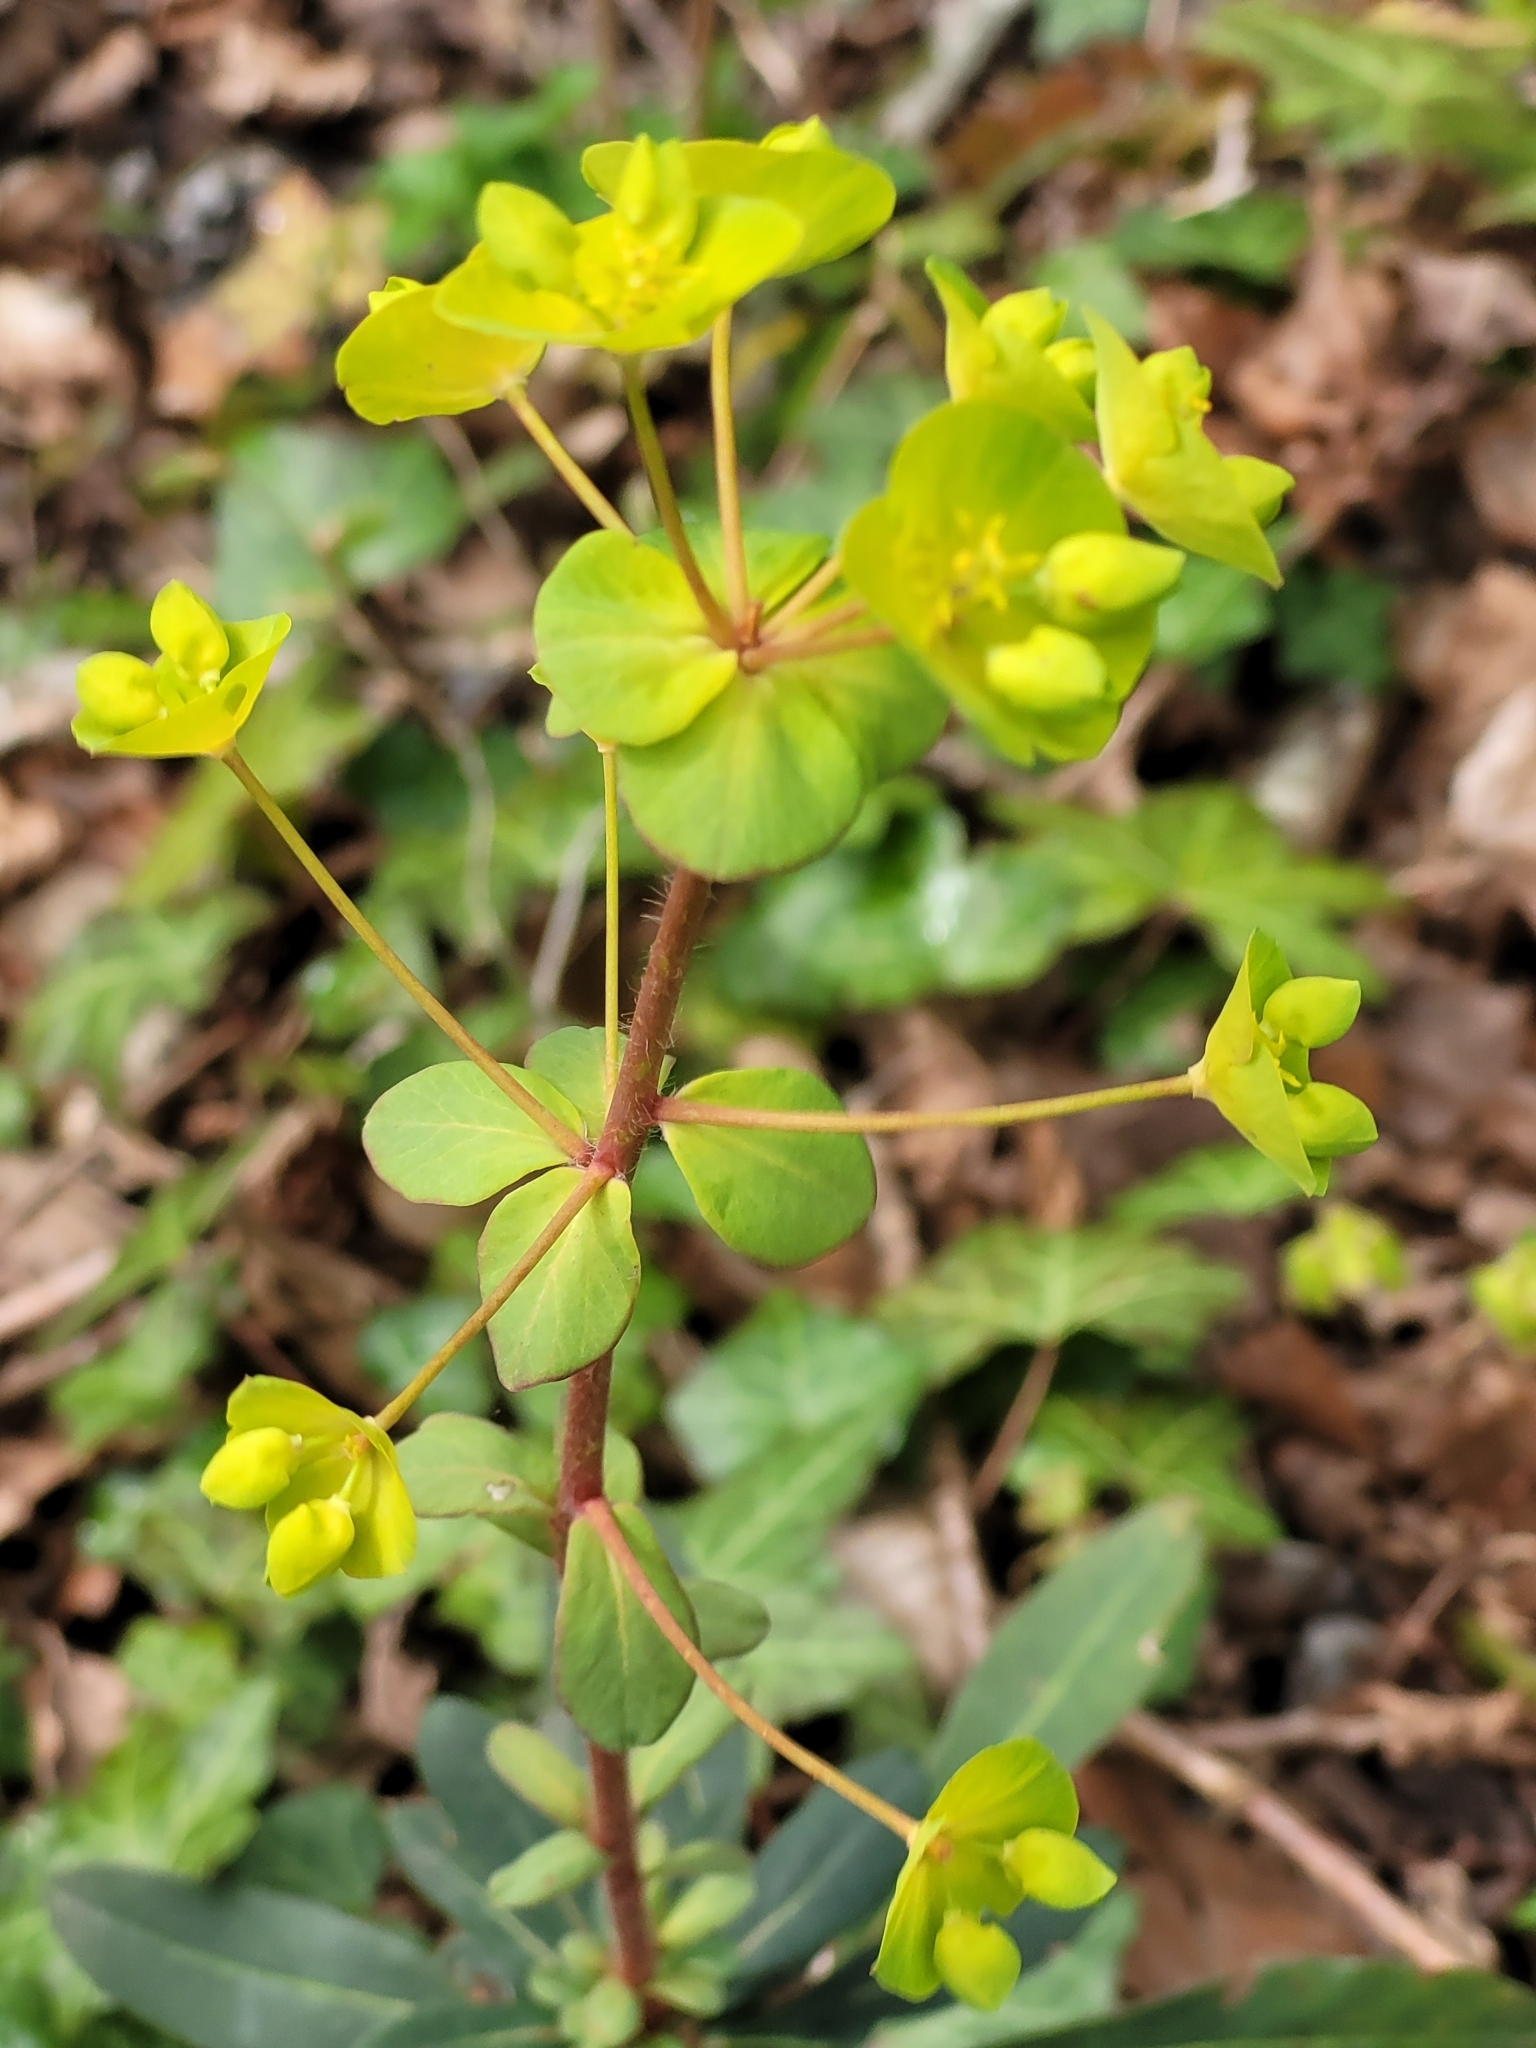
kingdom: Plantae
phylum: Tracheophyta
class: Magnoliopsida
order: Malpighiales
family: Euphorbiaceae
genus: Euphorbia
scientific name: Euphorbia amygdaloides
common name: Wood spurge
